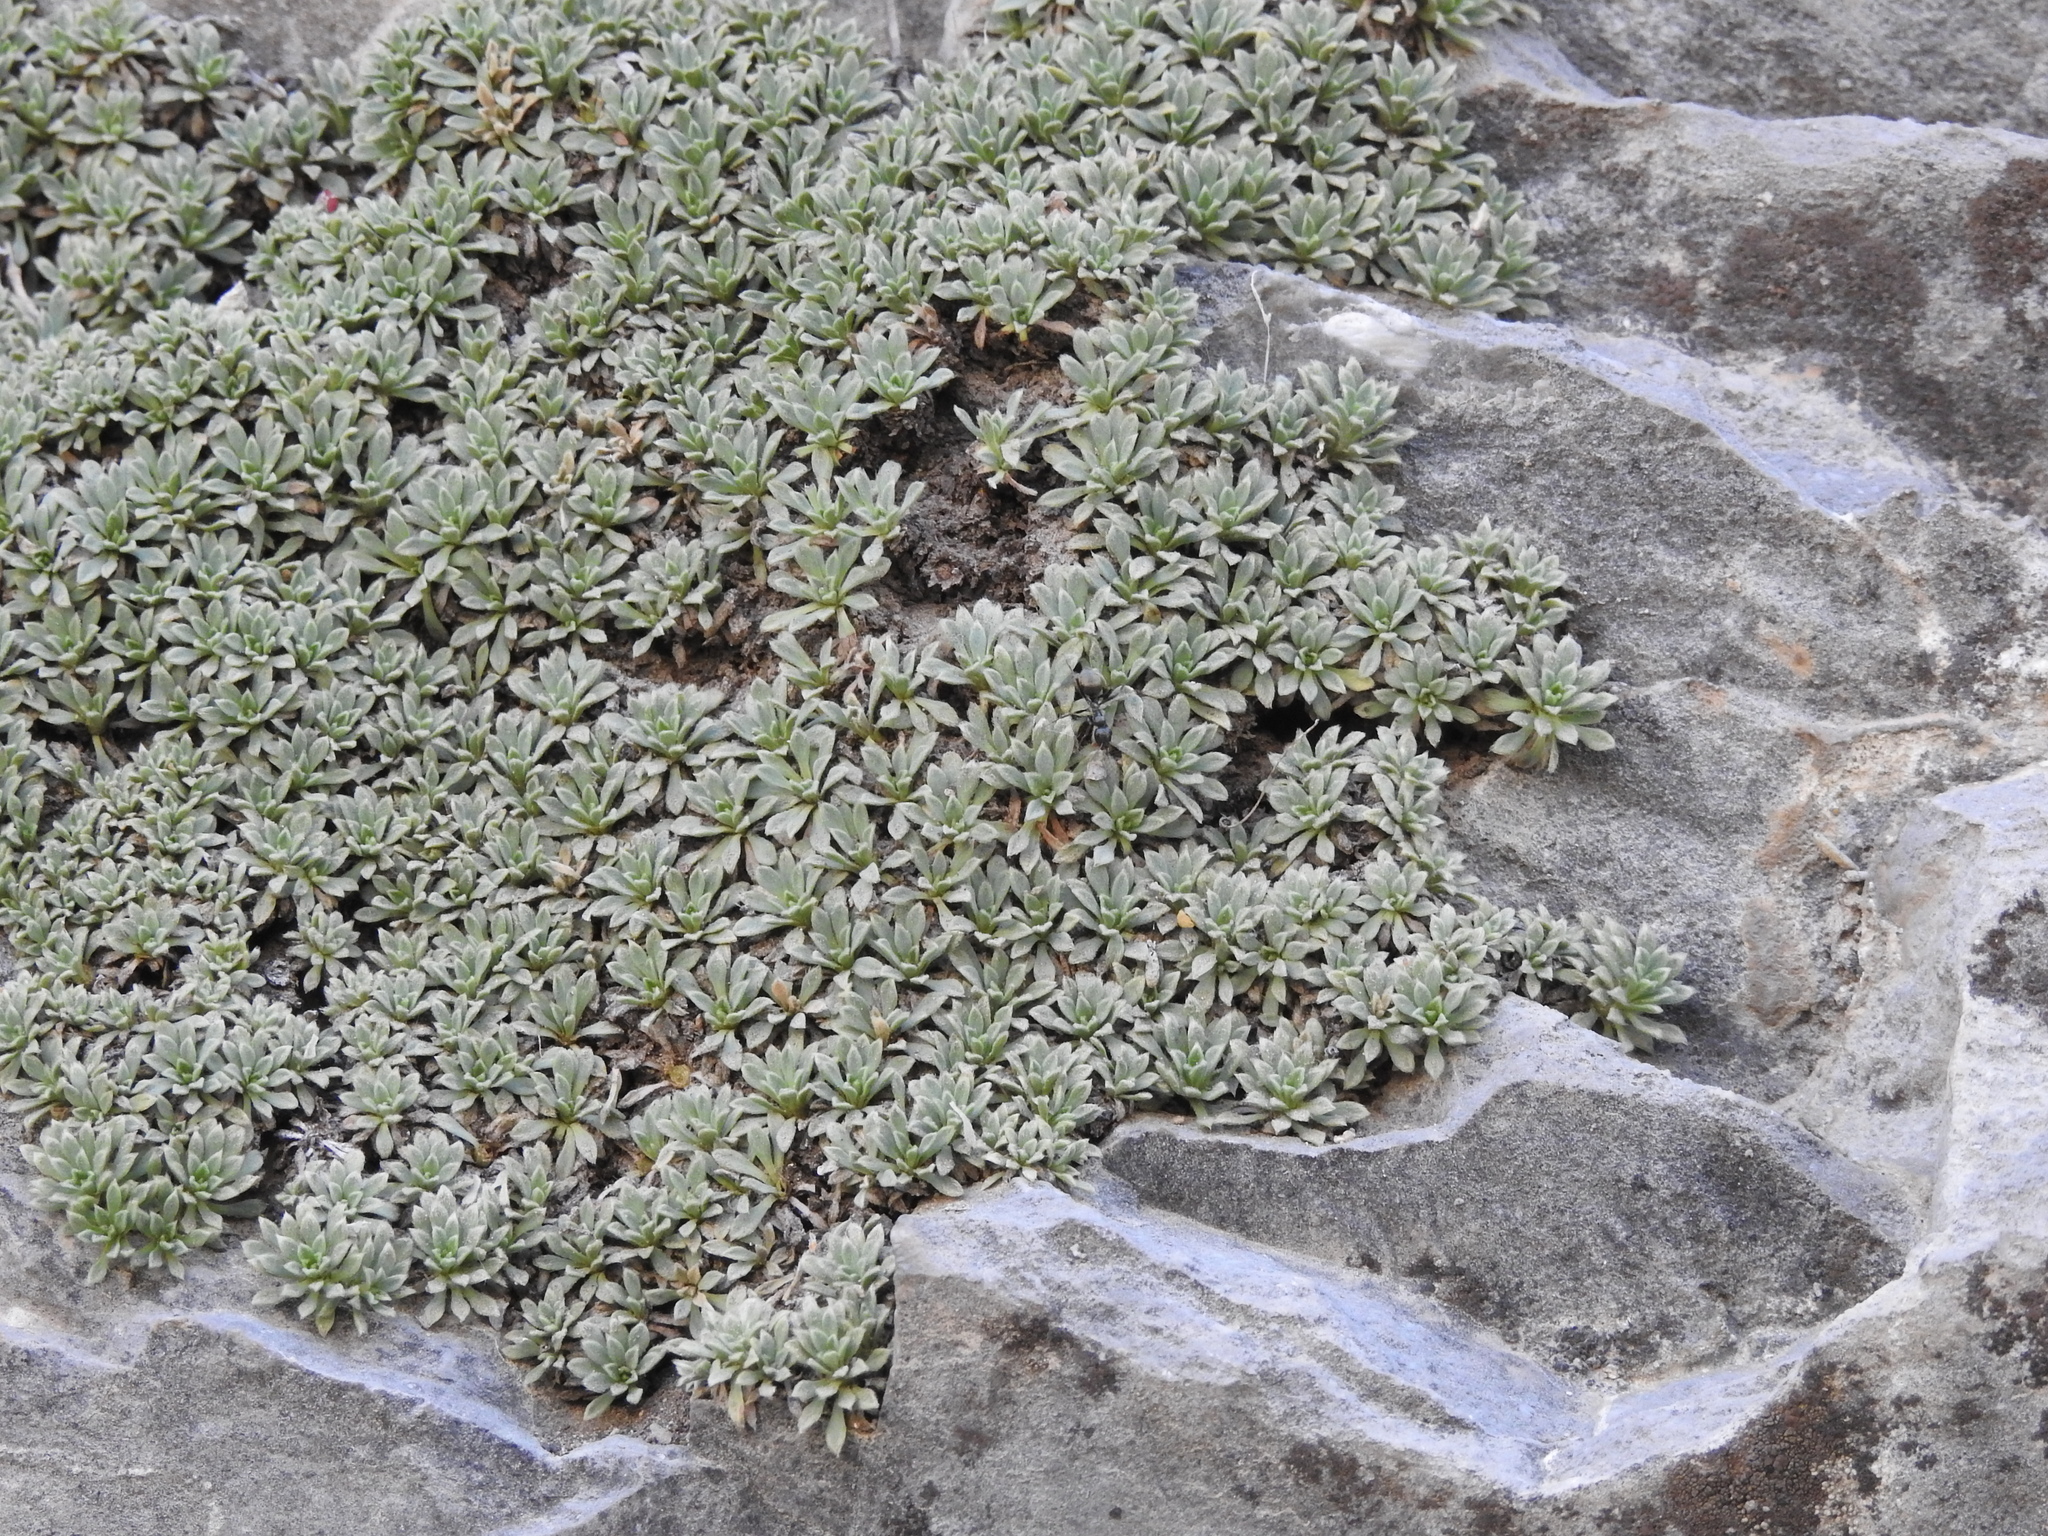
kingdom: Plantae
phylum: Tracheophyta
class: Magnoliopsida
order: Rosales
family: Rosaceae
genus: Petrophytum
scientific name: Petrophytum caespitosum
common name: Mat rockspirea
